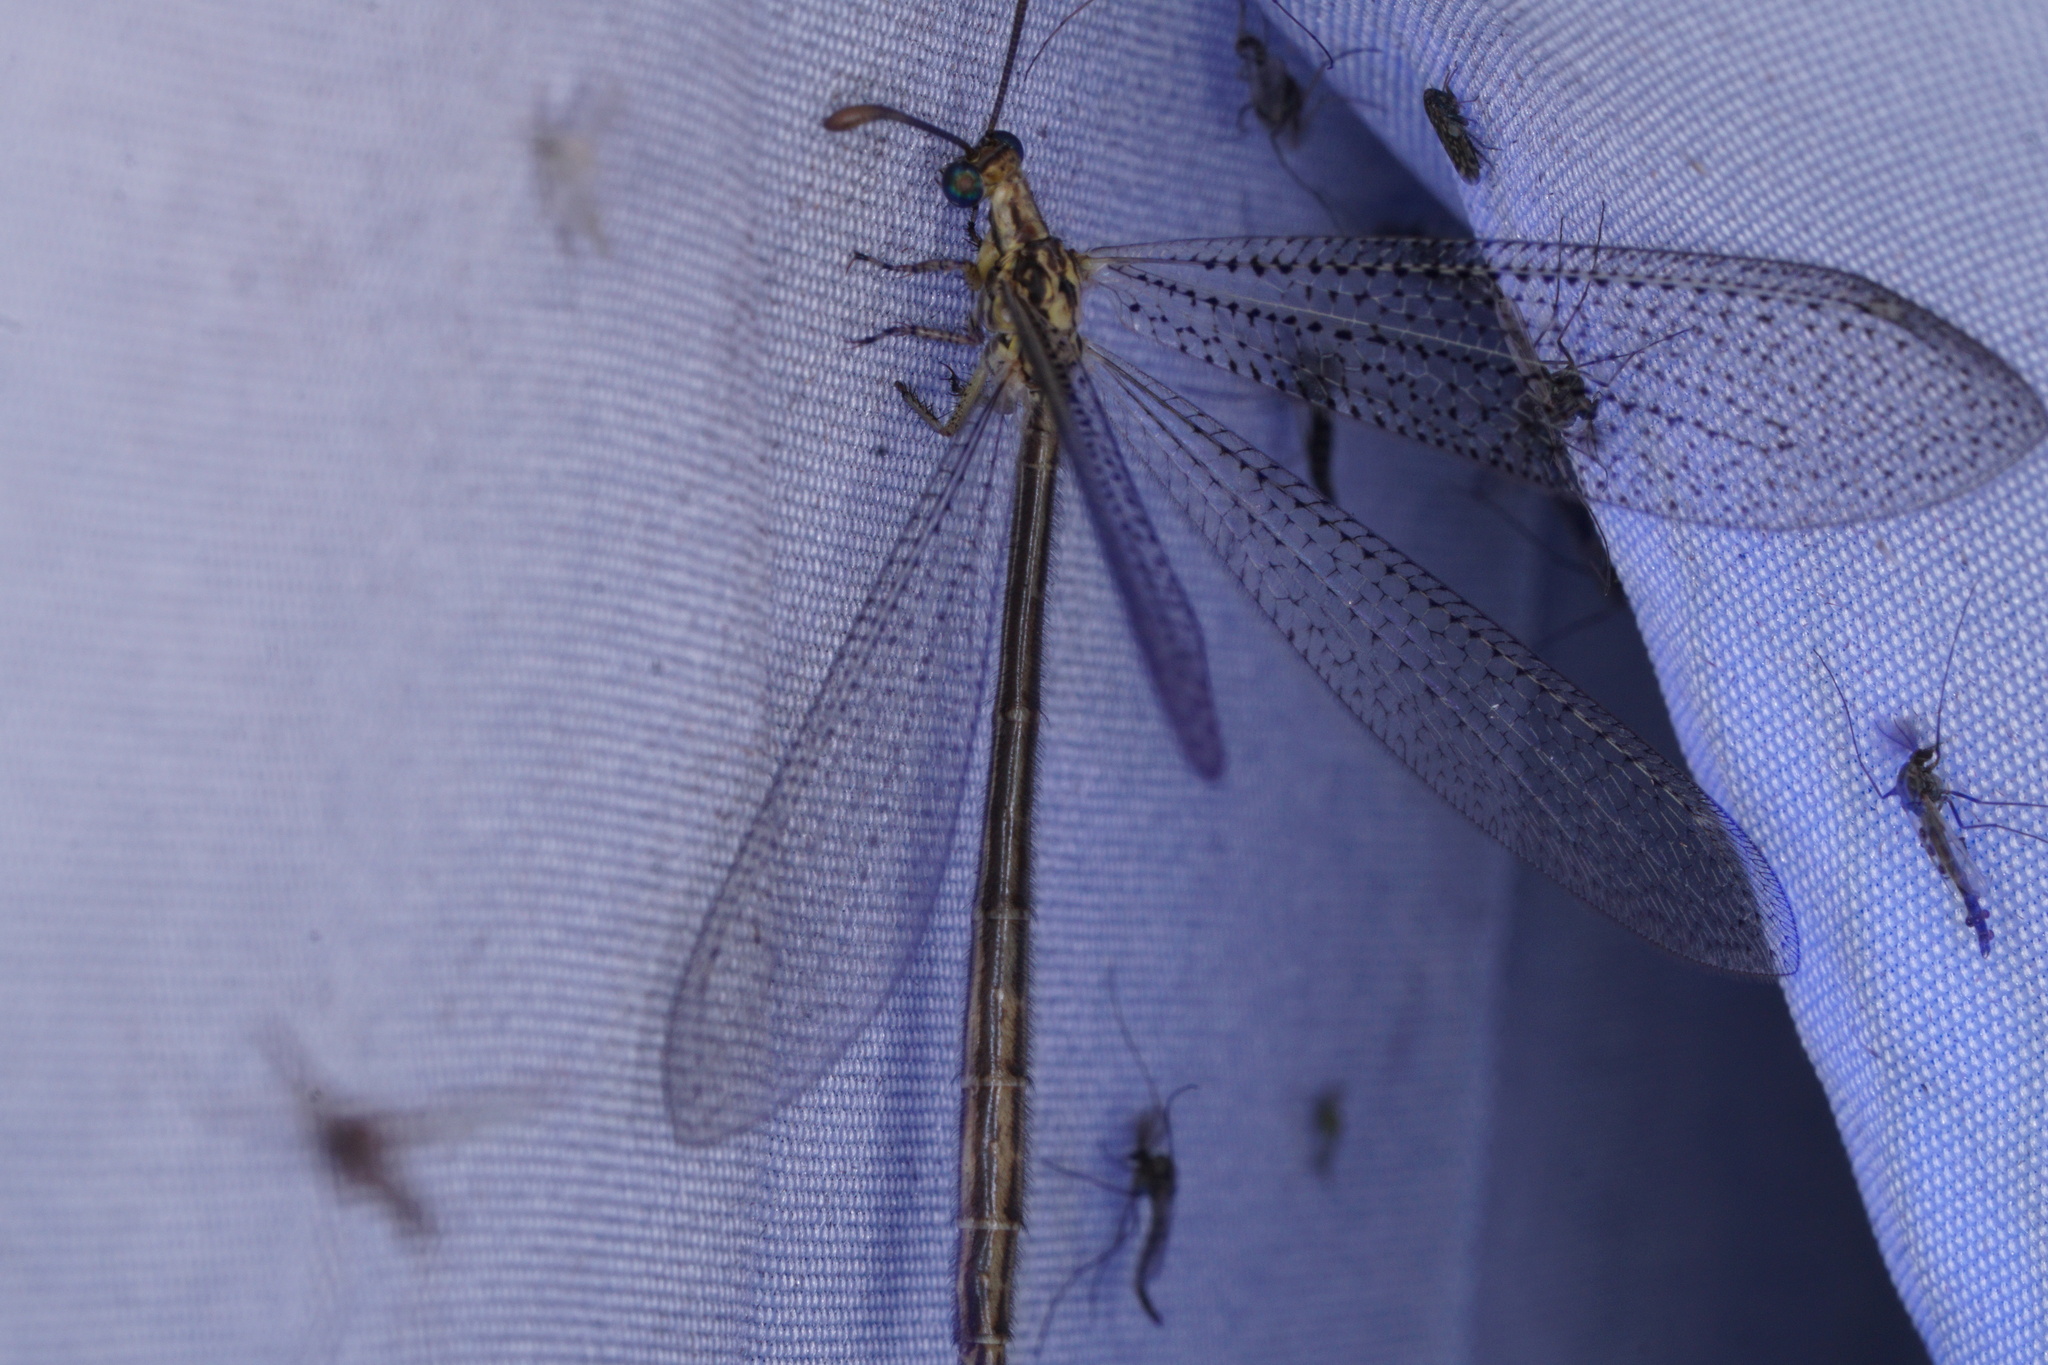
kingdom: Animalia
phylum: Arthropoda
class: Insecta
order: Neuroptera
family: Myrmeleontidae
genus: Brachynemurus
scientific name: Brachynemurus abdominalis
